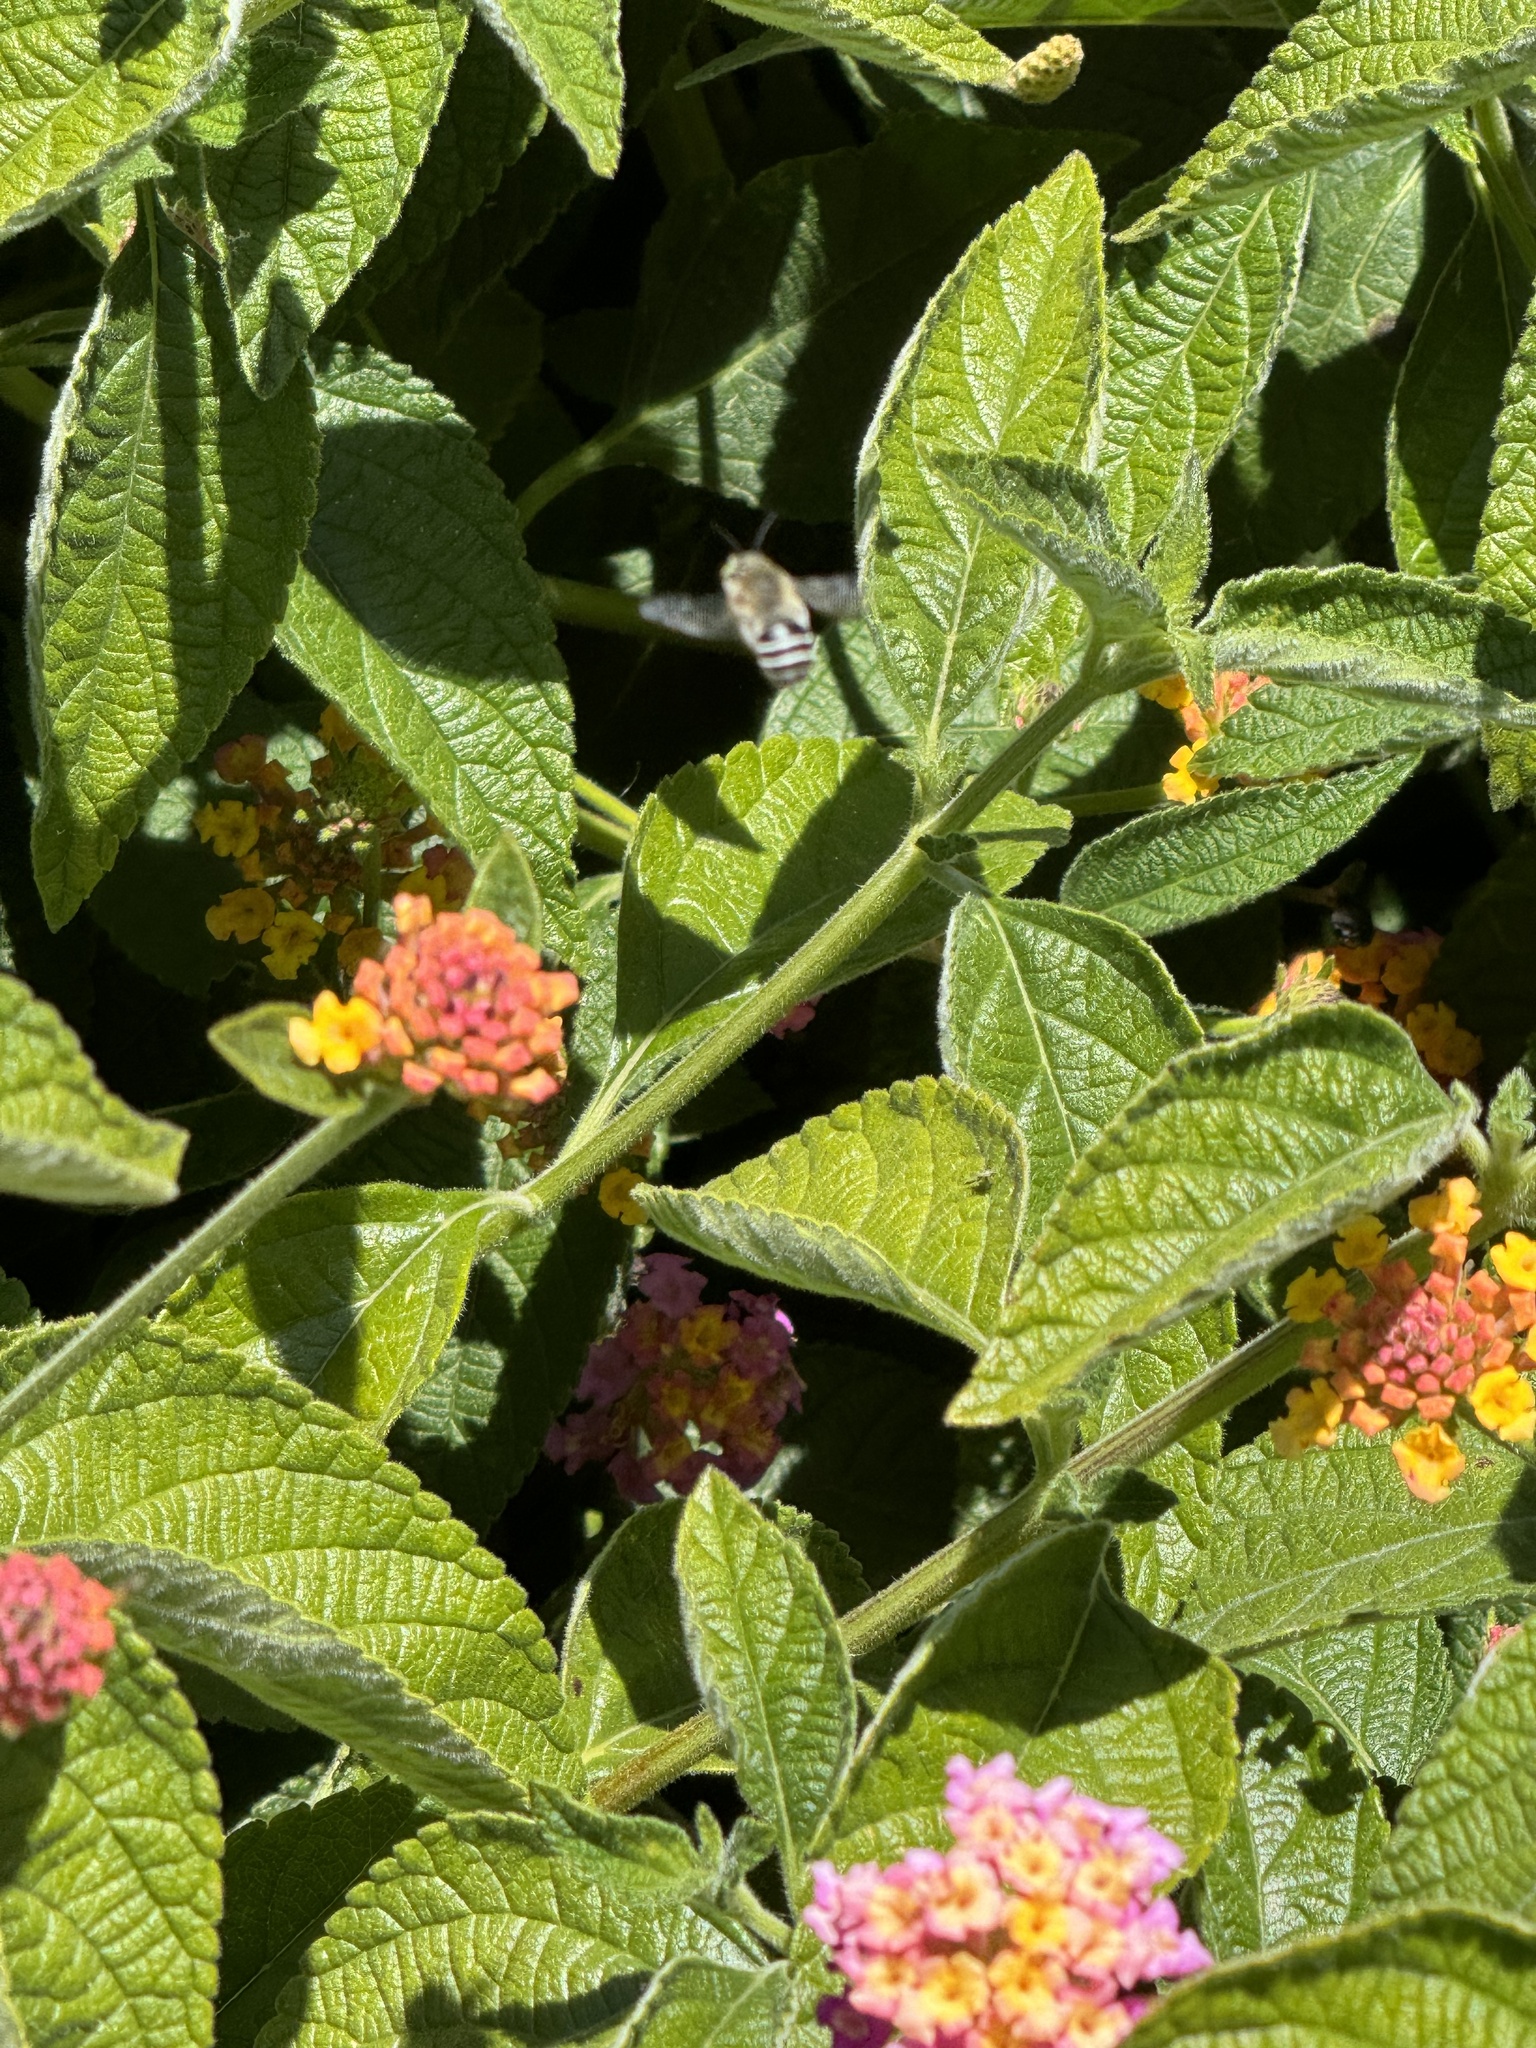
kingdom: Animalia
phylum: Arthropoda
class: Insecta
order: Hymenoptera
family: Apidae
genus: Anthophora
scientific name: Anthophora californica
